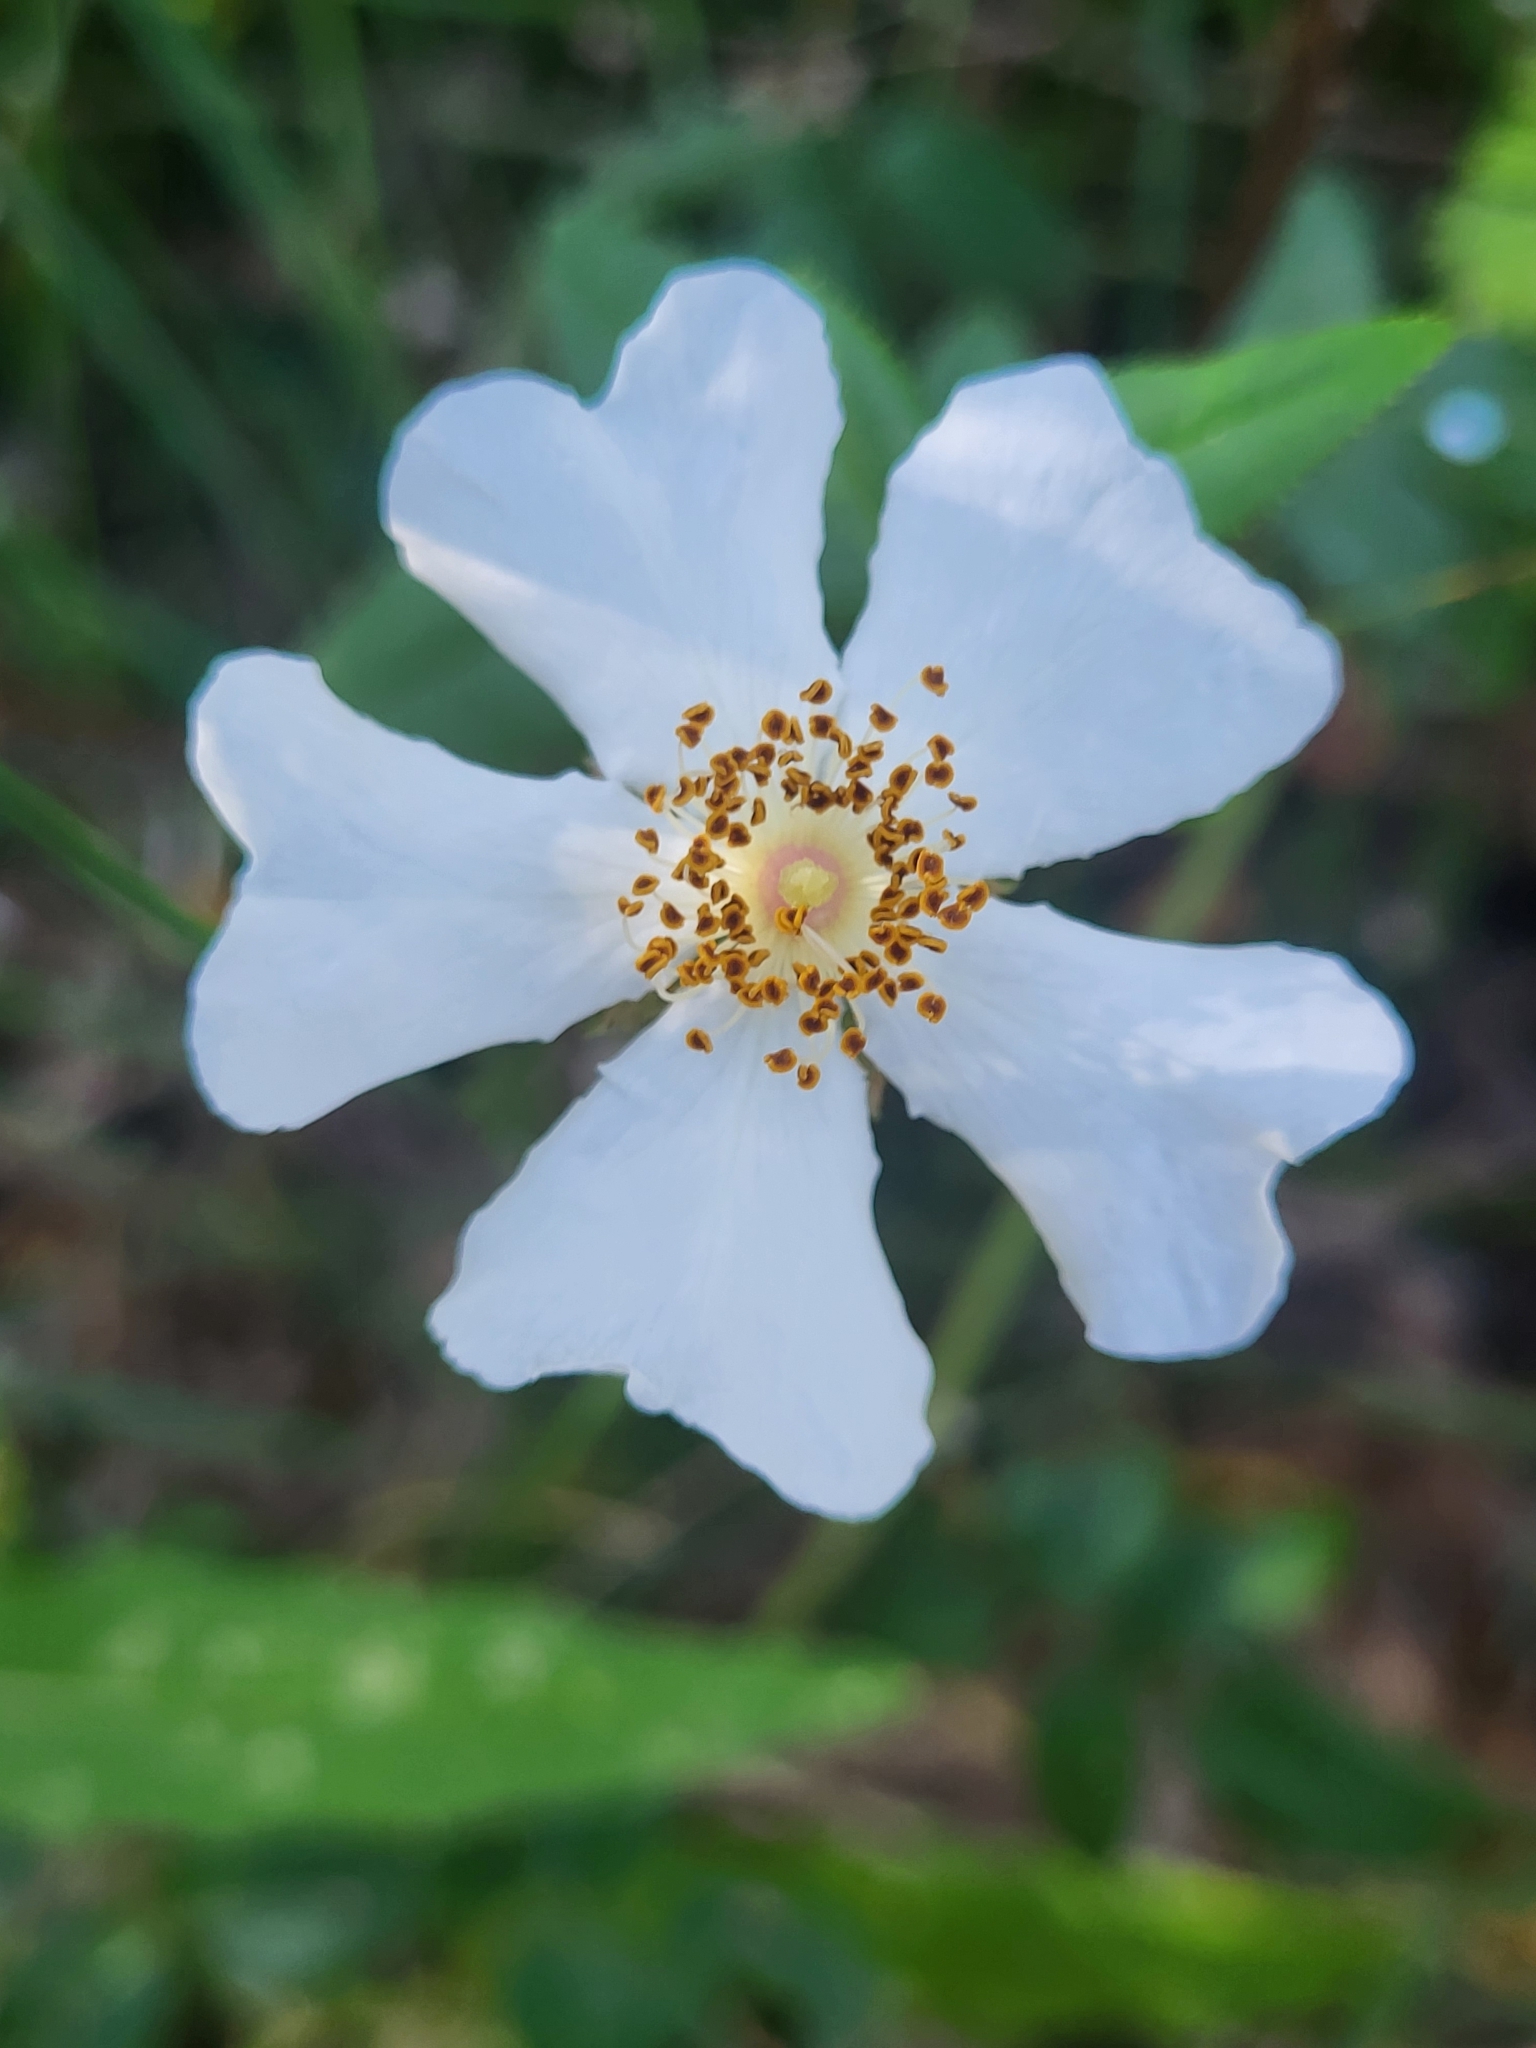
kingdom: Plantae
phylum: Tracheophyta
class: Magnoliopsida
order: Rosales
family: Rosaceae
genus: Rosa
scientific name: Rosa sempervirens
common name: Evergreen rose
